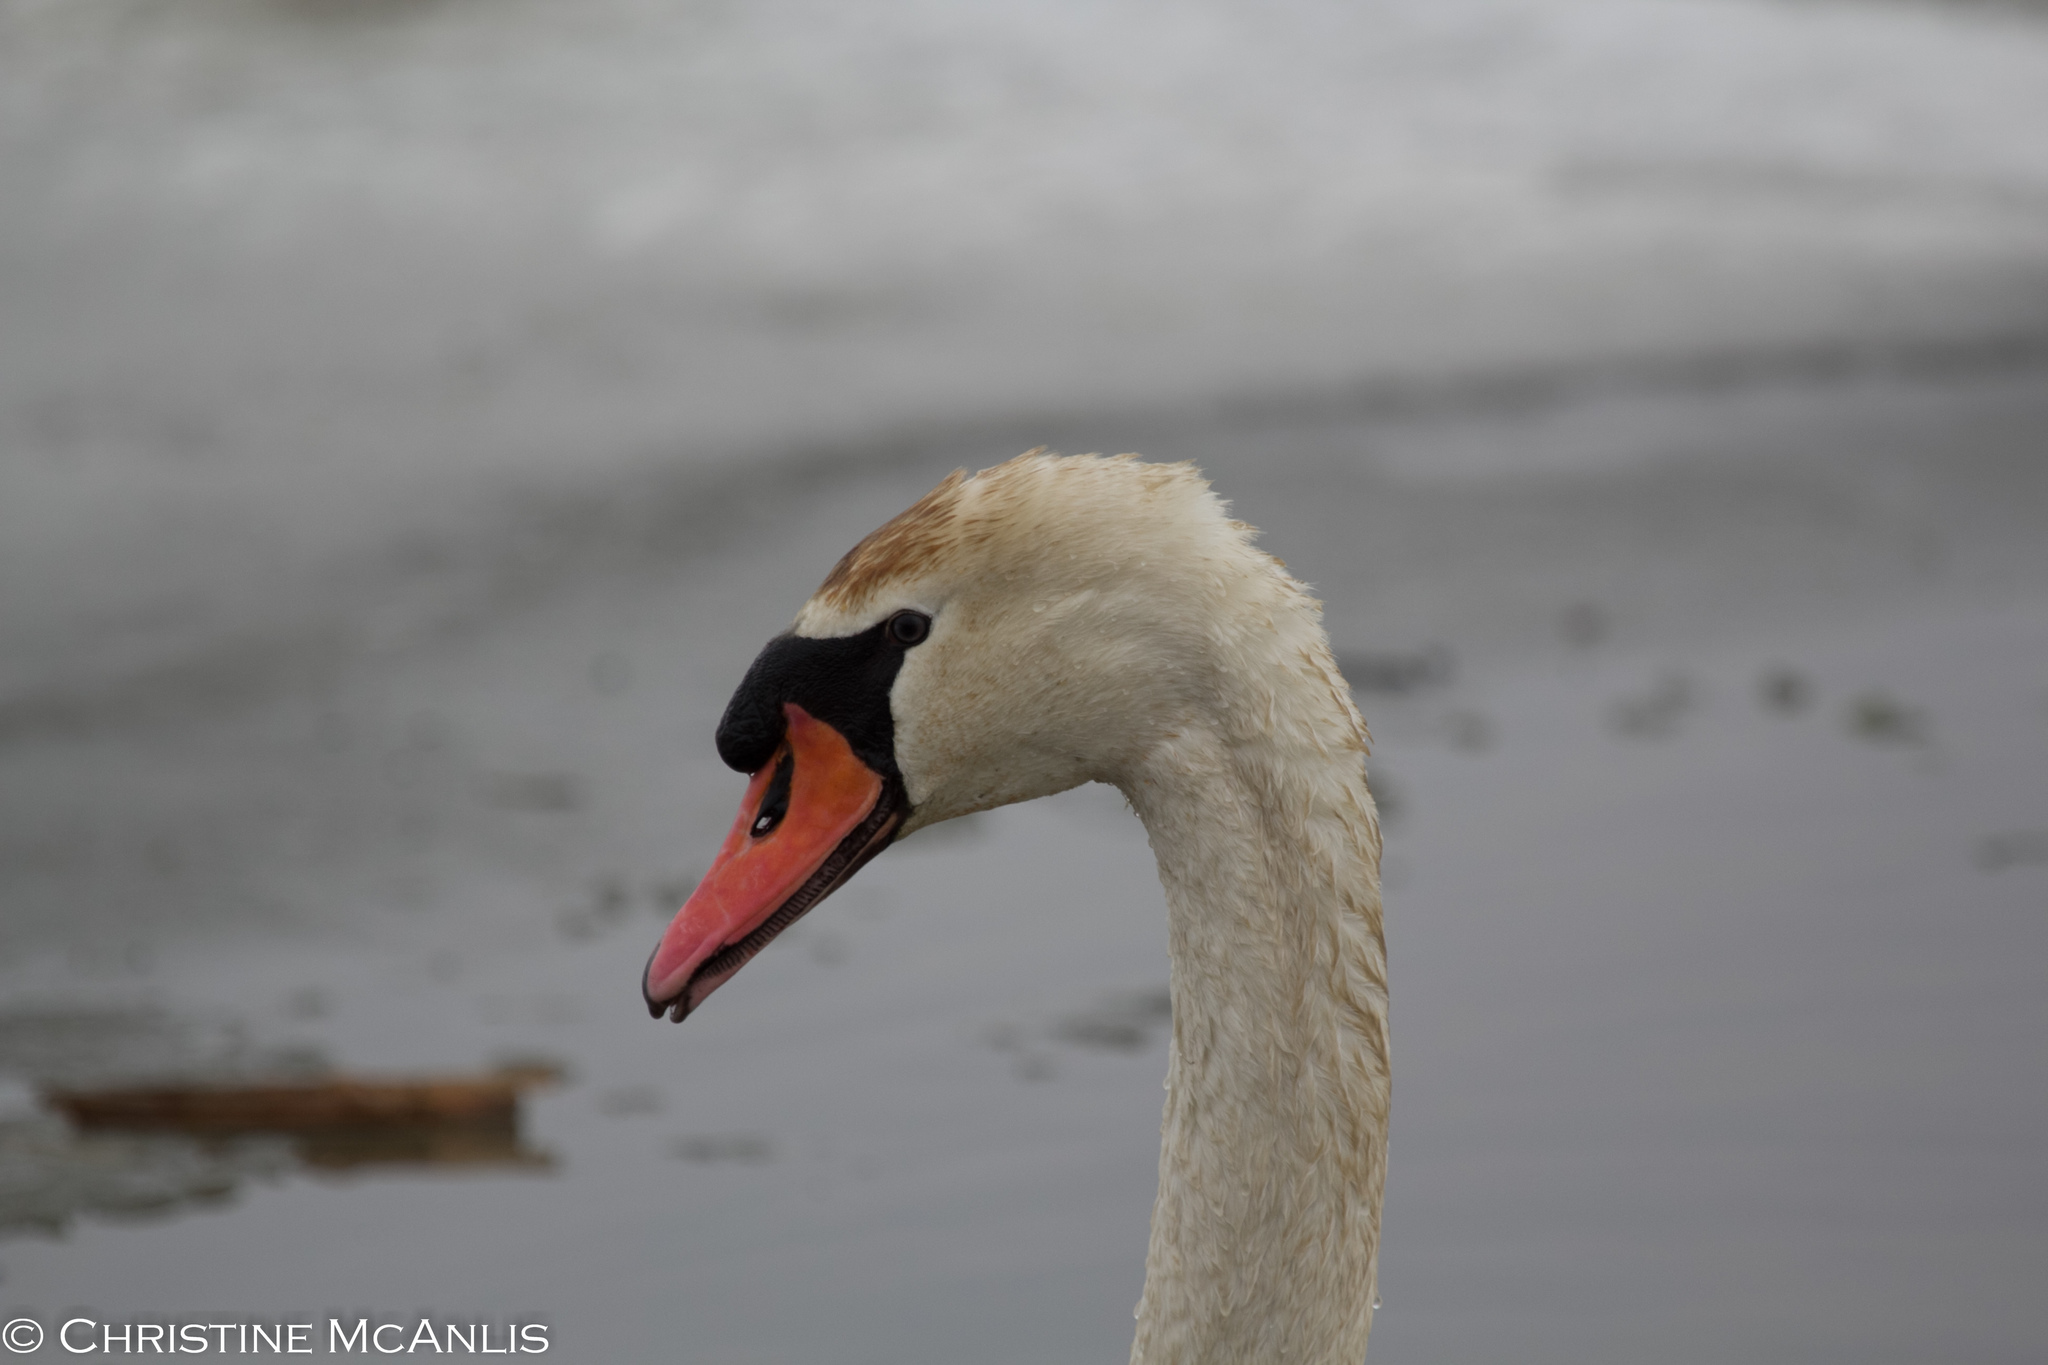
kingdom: Animalia
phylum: Chordata
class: Aves
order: Anseriformes
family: Anatidae
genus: Cygnus
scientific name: Cygnus olor
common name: Mute swan
